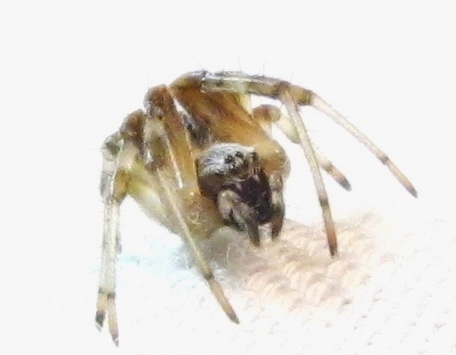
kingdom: Animalia
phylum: Arthropoda
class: Arachnida
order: Araneae
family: Araneidae
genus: Metepeira
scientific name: Metepeira labyrinthea
